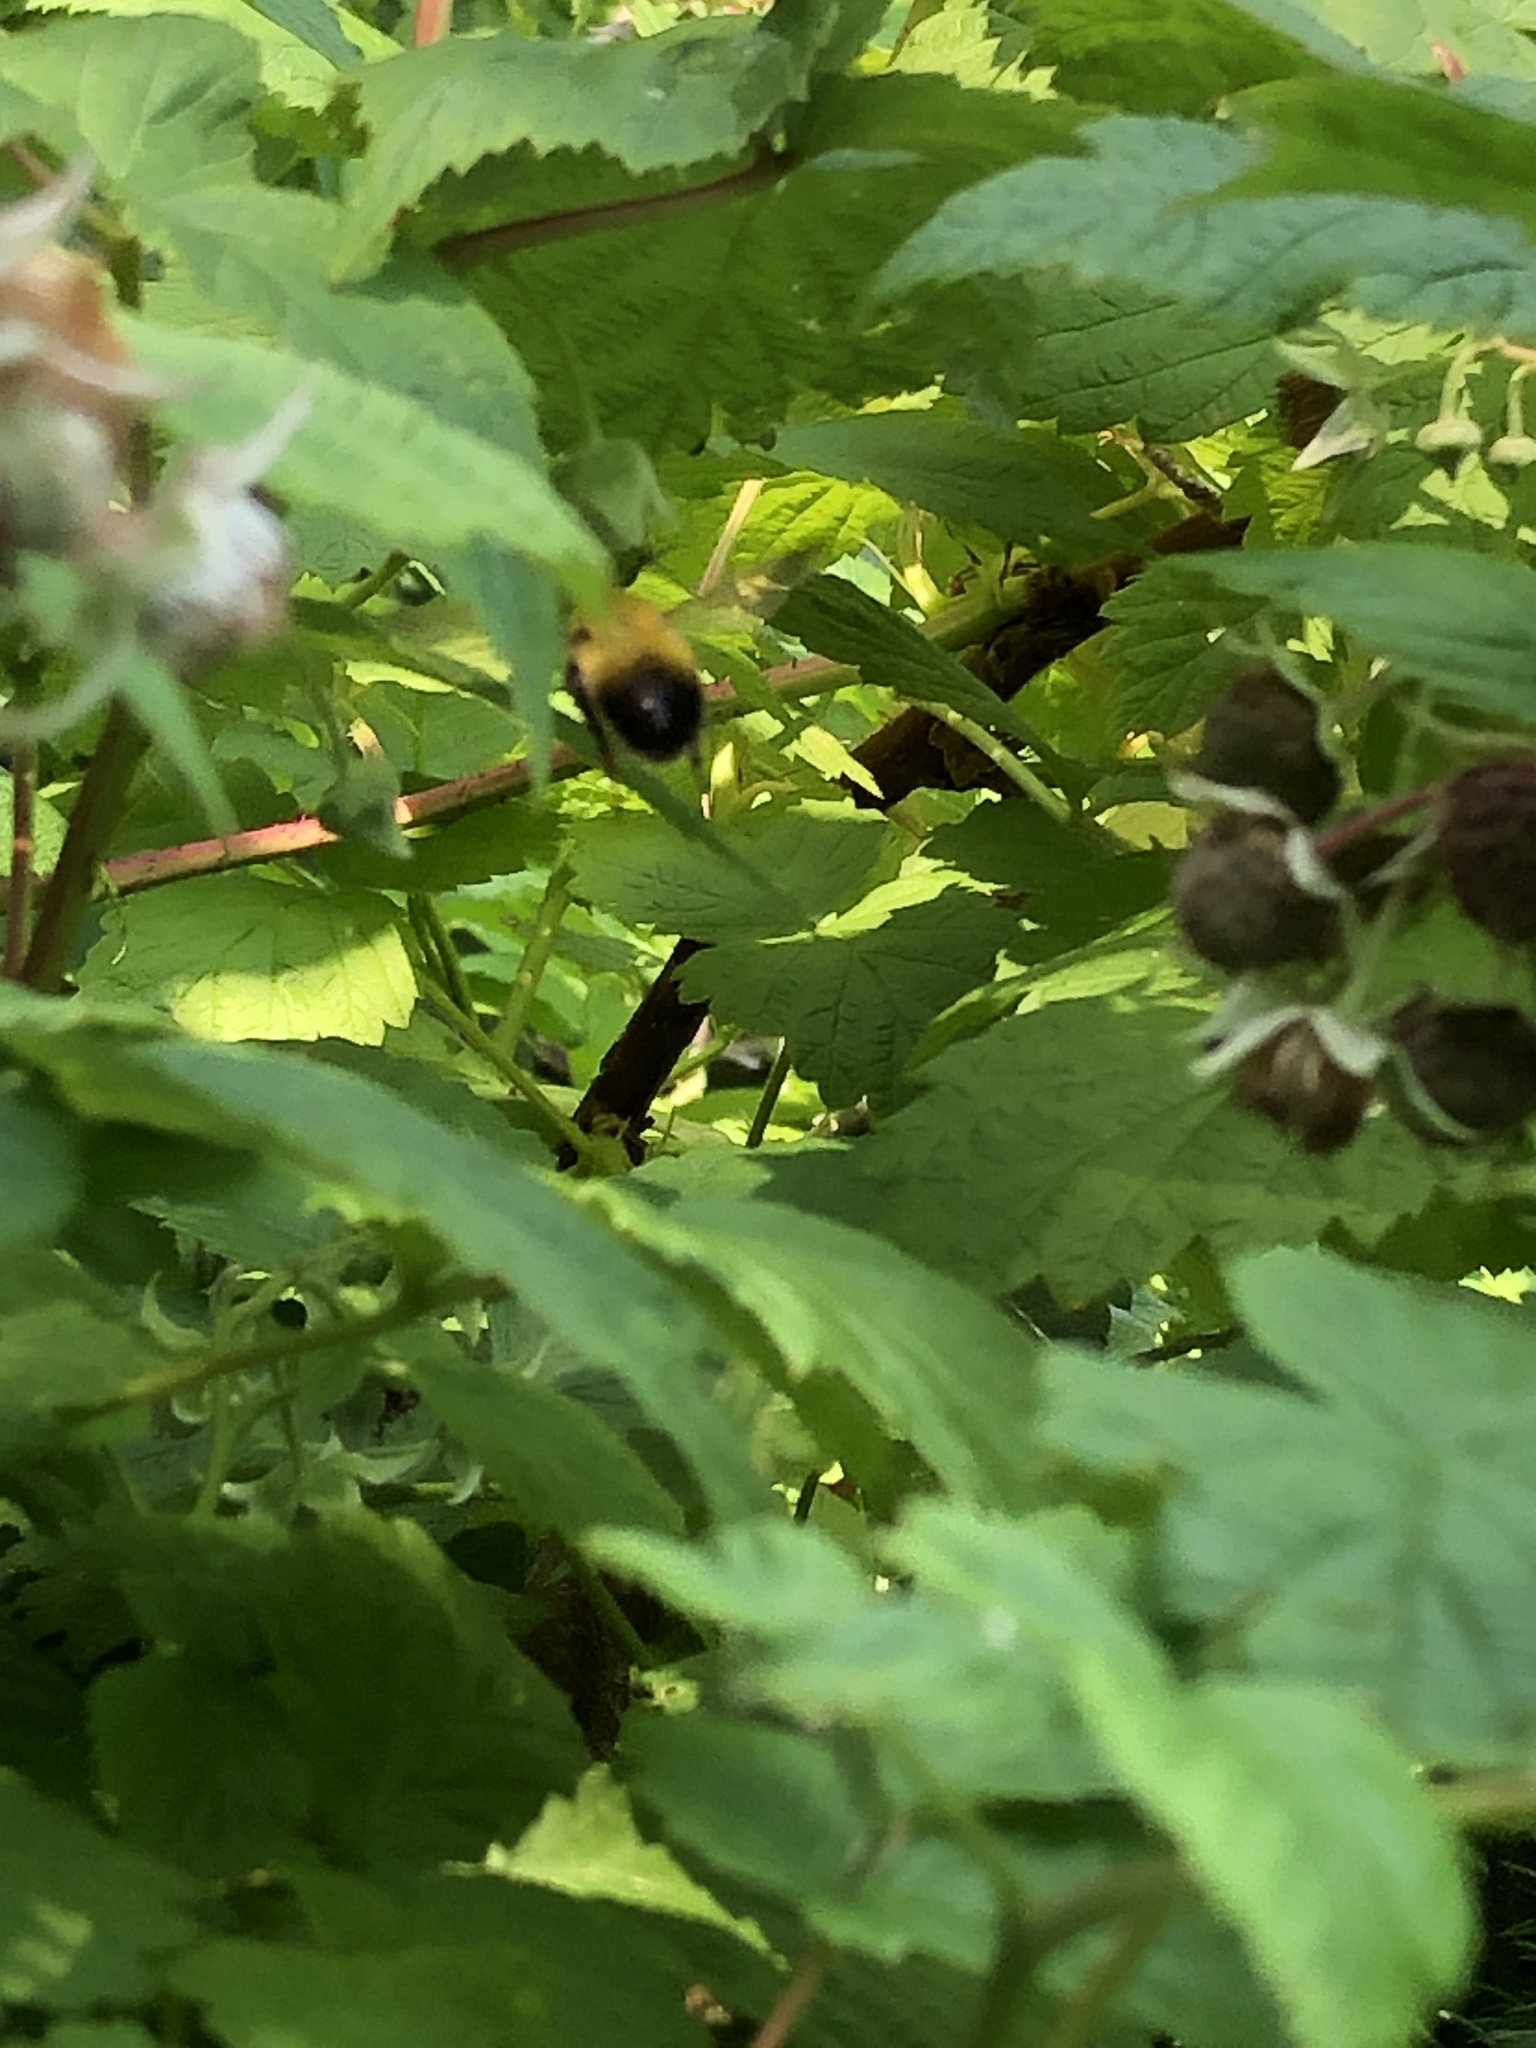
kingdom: Animalia
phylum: Arthropoda
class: Insecta
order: Hymenoptera
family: Apidae
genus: Bombus
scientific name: Bombus perplexus
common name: Confusing bumble bee
